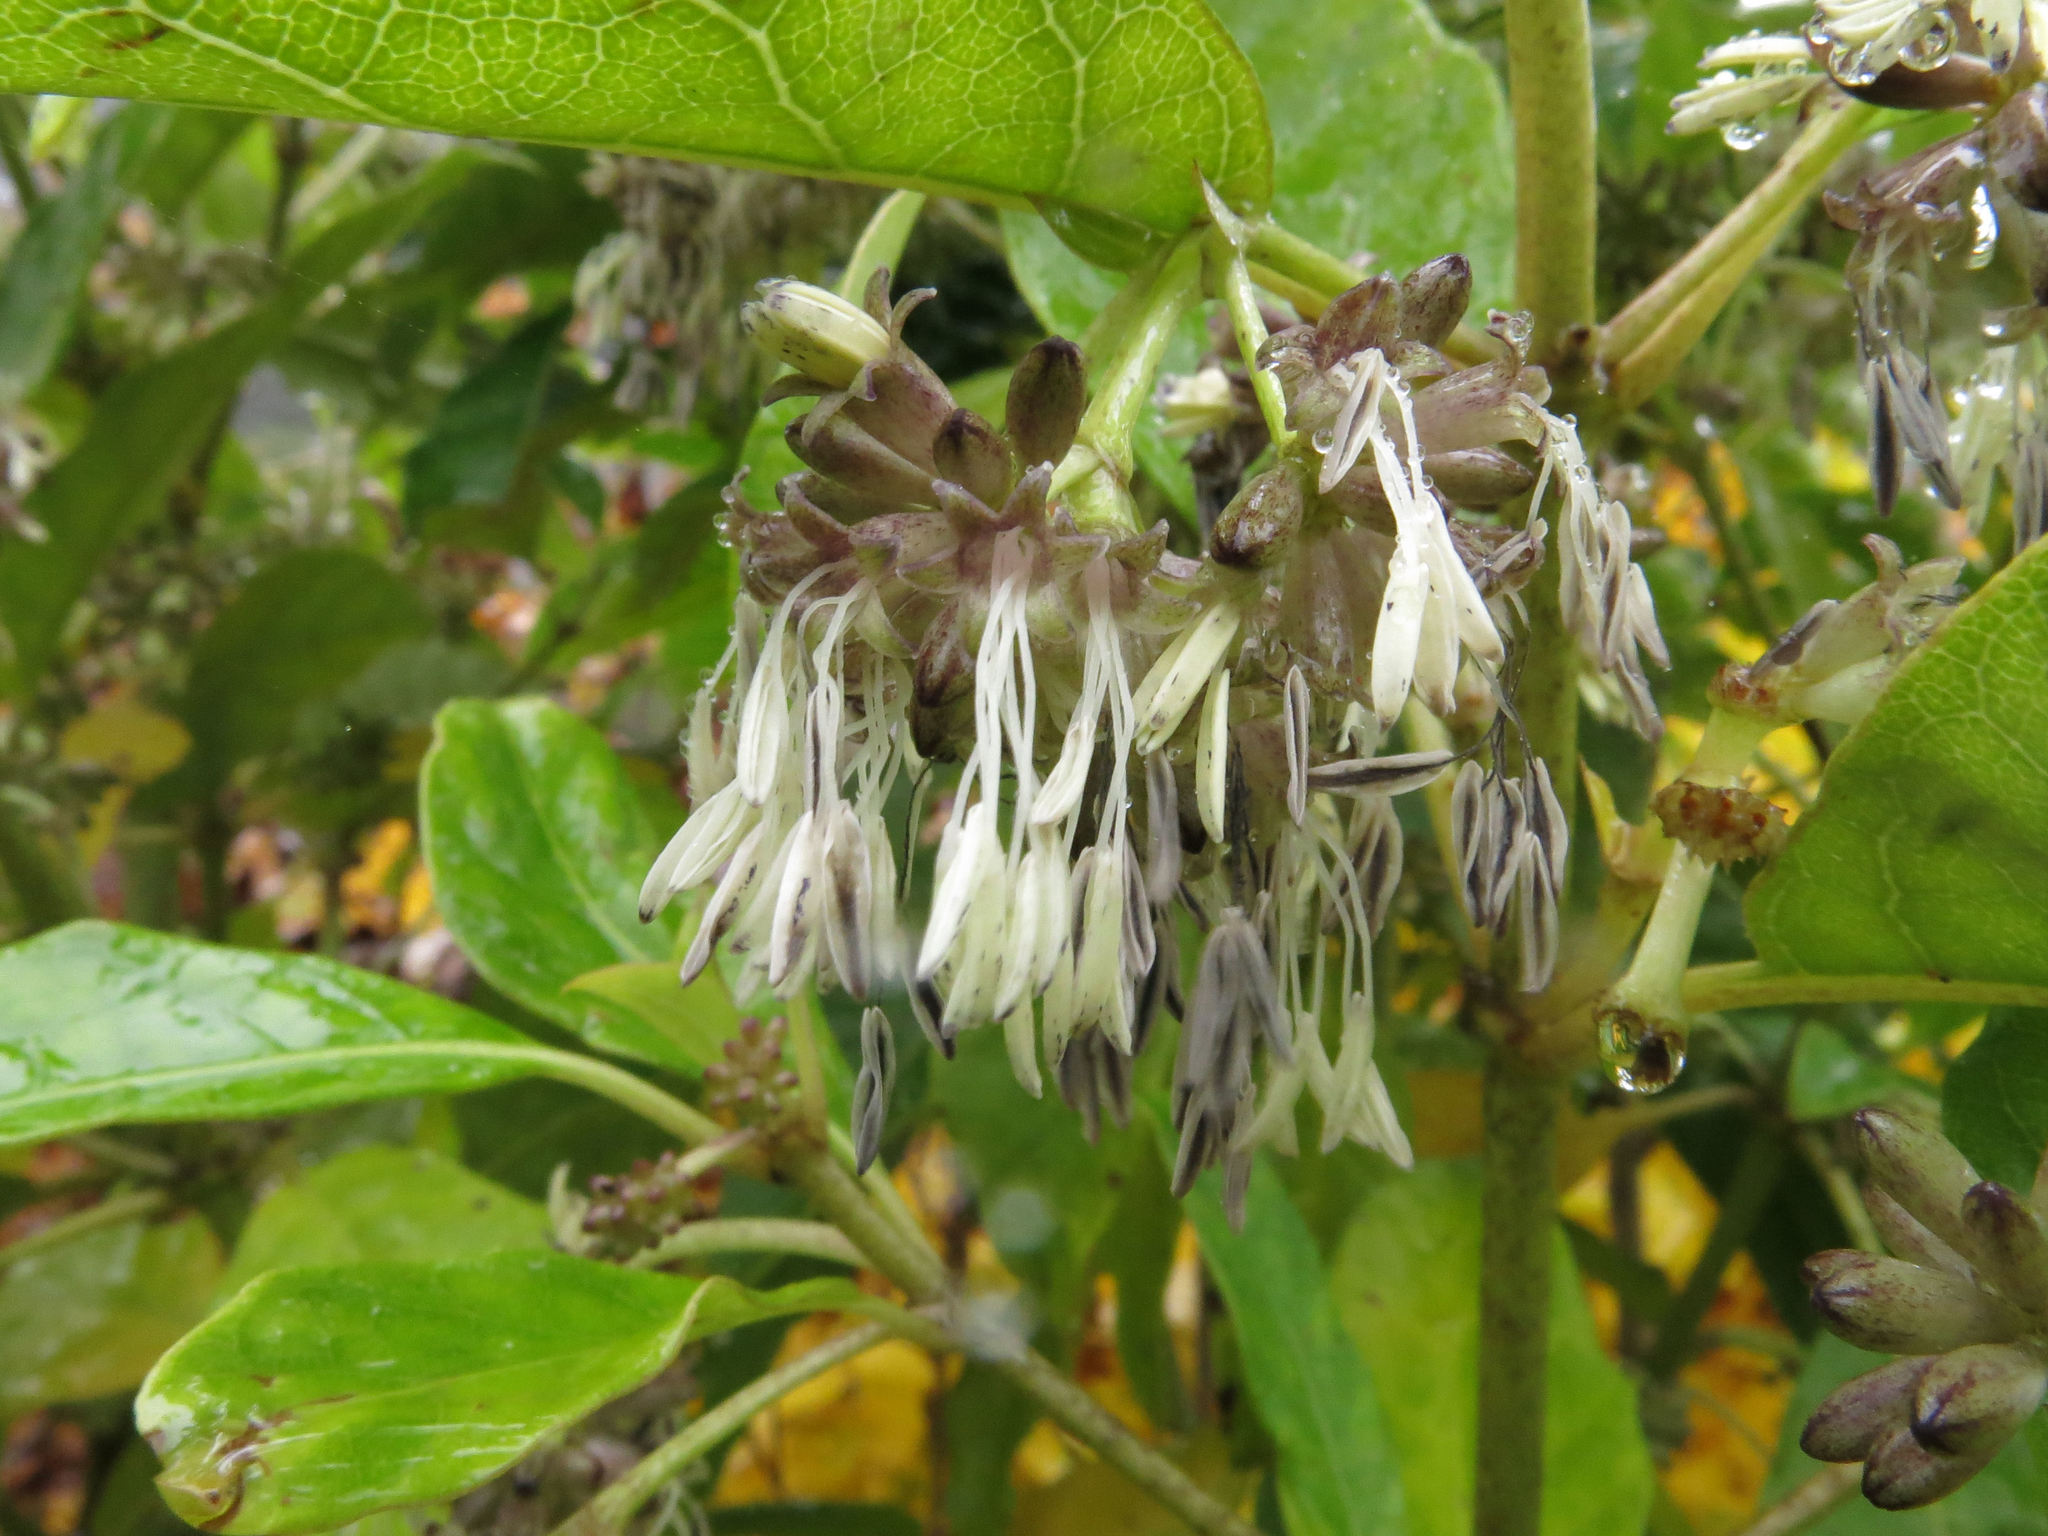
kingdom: Plantae
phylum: Tracheophyta
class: Magnoliopsida
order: Gentianales
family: Rubiaceae
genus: Coprosma
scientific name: Coprosma autumnalis
